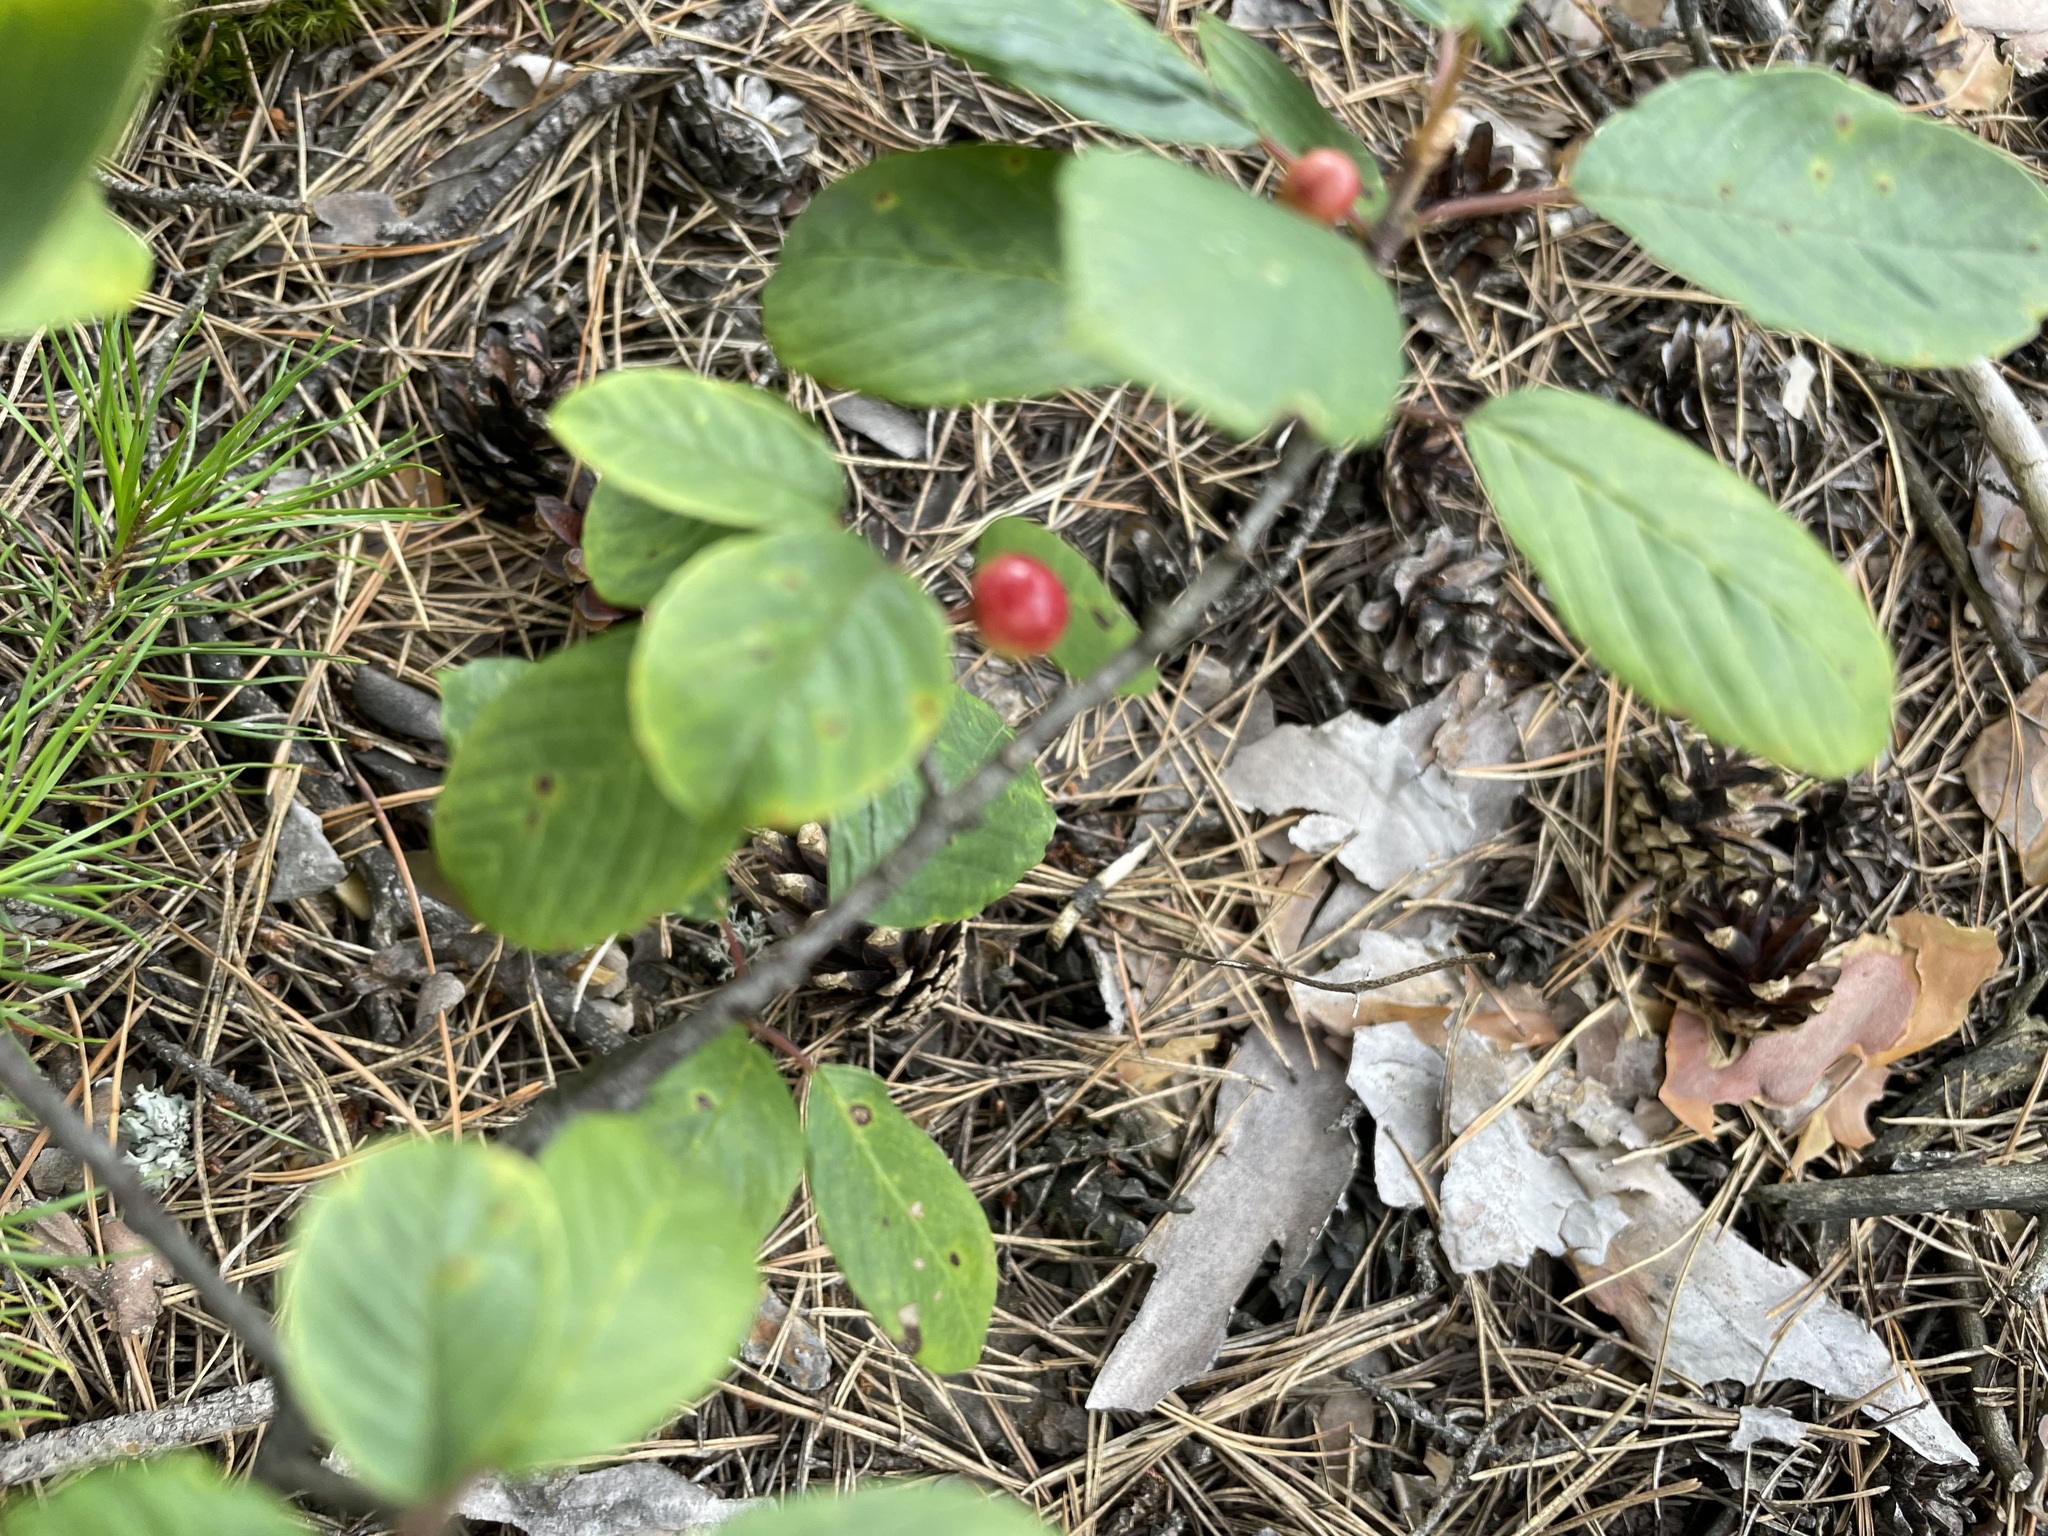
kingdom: Plantae
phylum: Tracheophyta
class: Magnoliopsida
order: Rosales
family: Rhamnaceae
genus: Frangula
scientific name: Frangula alnus
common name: Alder buckthorn
